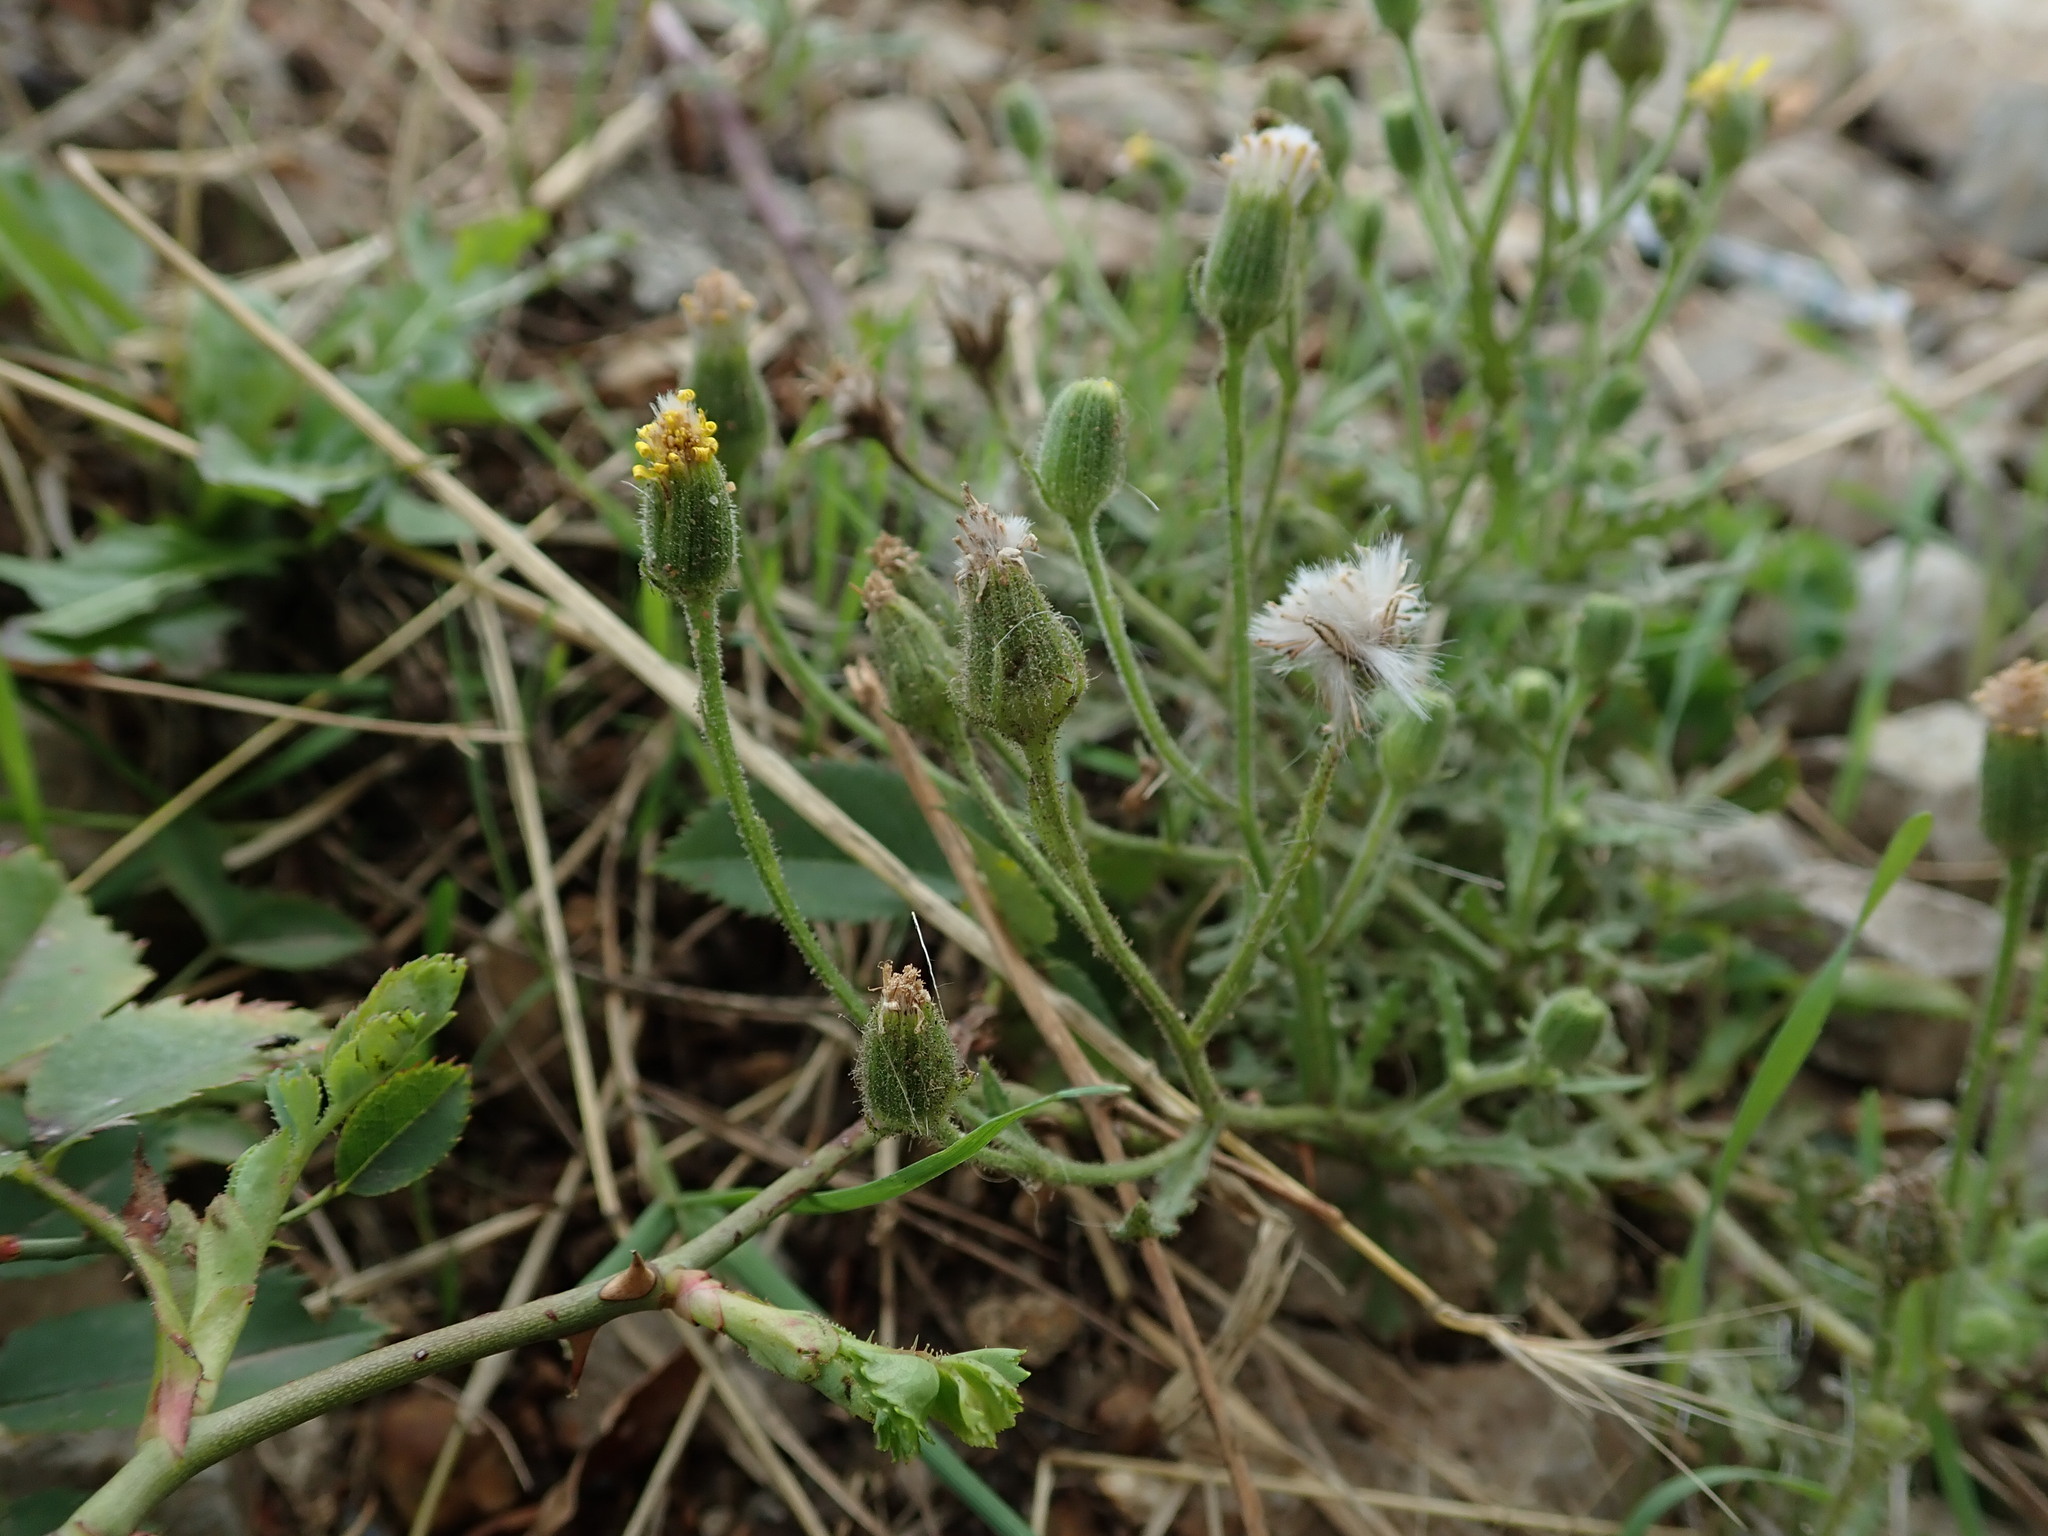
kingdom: Plantae
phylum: Tracheophyta
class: Magnoliopsida
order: Asterales
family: Asteraceae
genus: Senecio
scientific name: Senecio viscosus
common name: Sticky groundsel
